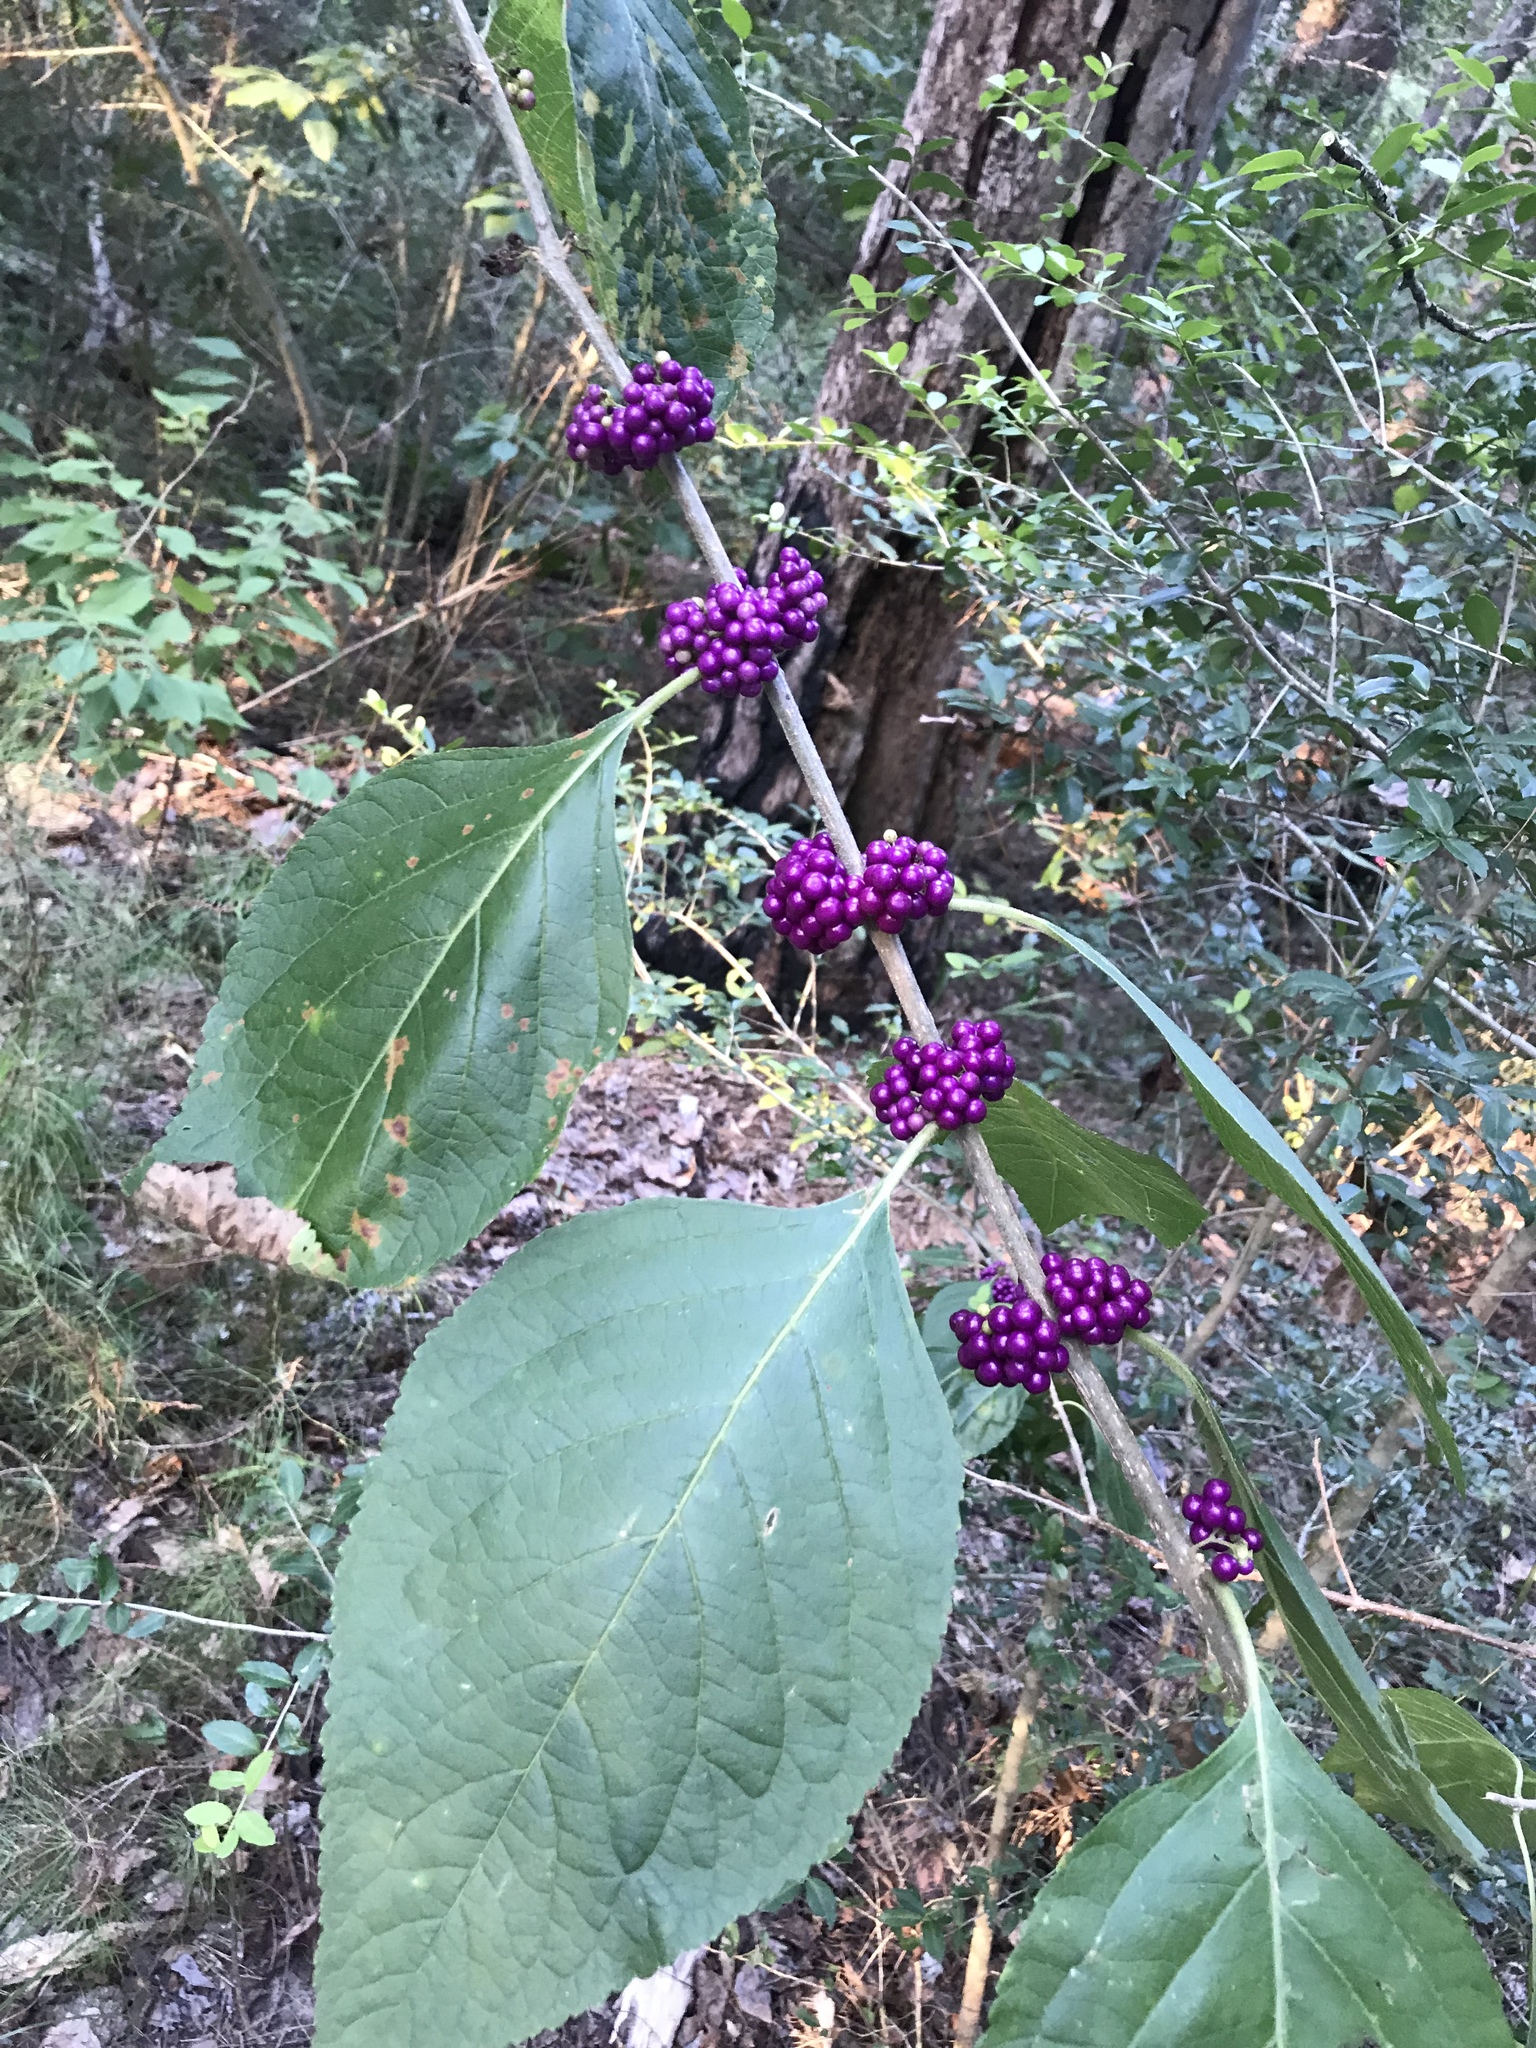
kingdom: Plantae
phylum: Tracheophyta
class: Magnoliopsida
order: Lamiales
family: Lamiaceae
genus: Callicarpa
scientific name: Callicarpa americana
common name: American beautyberry
